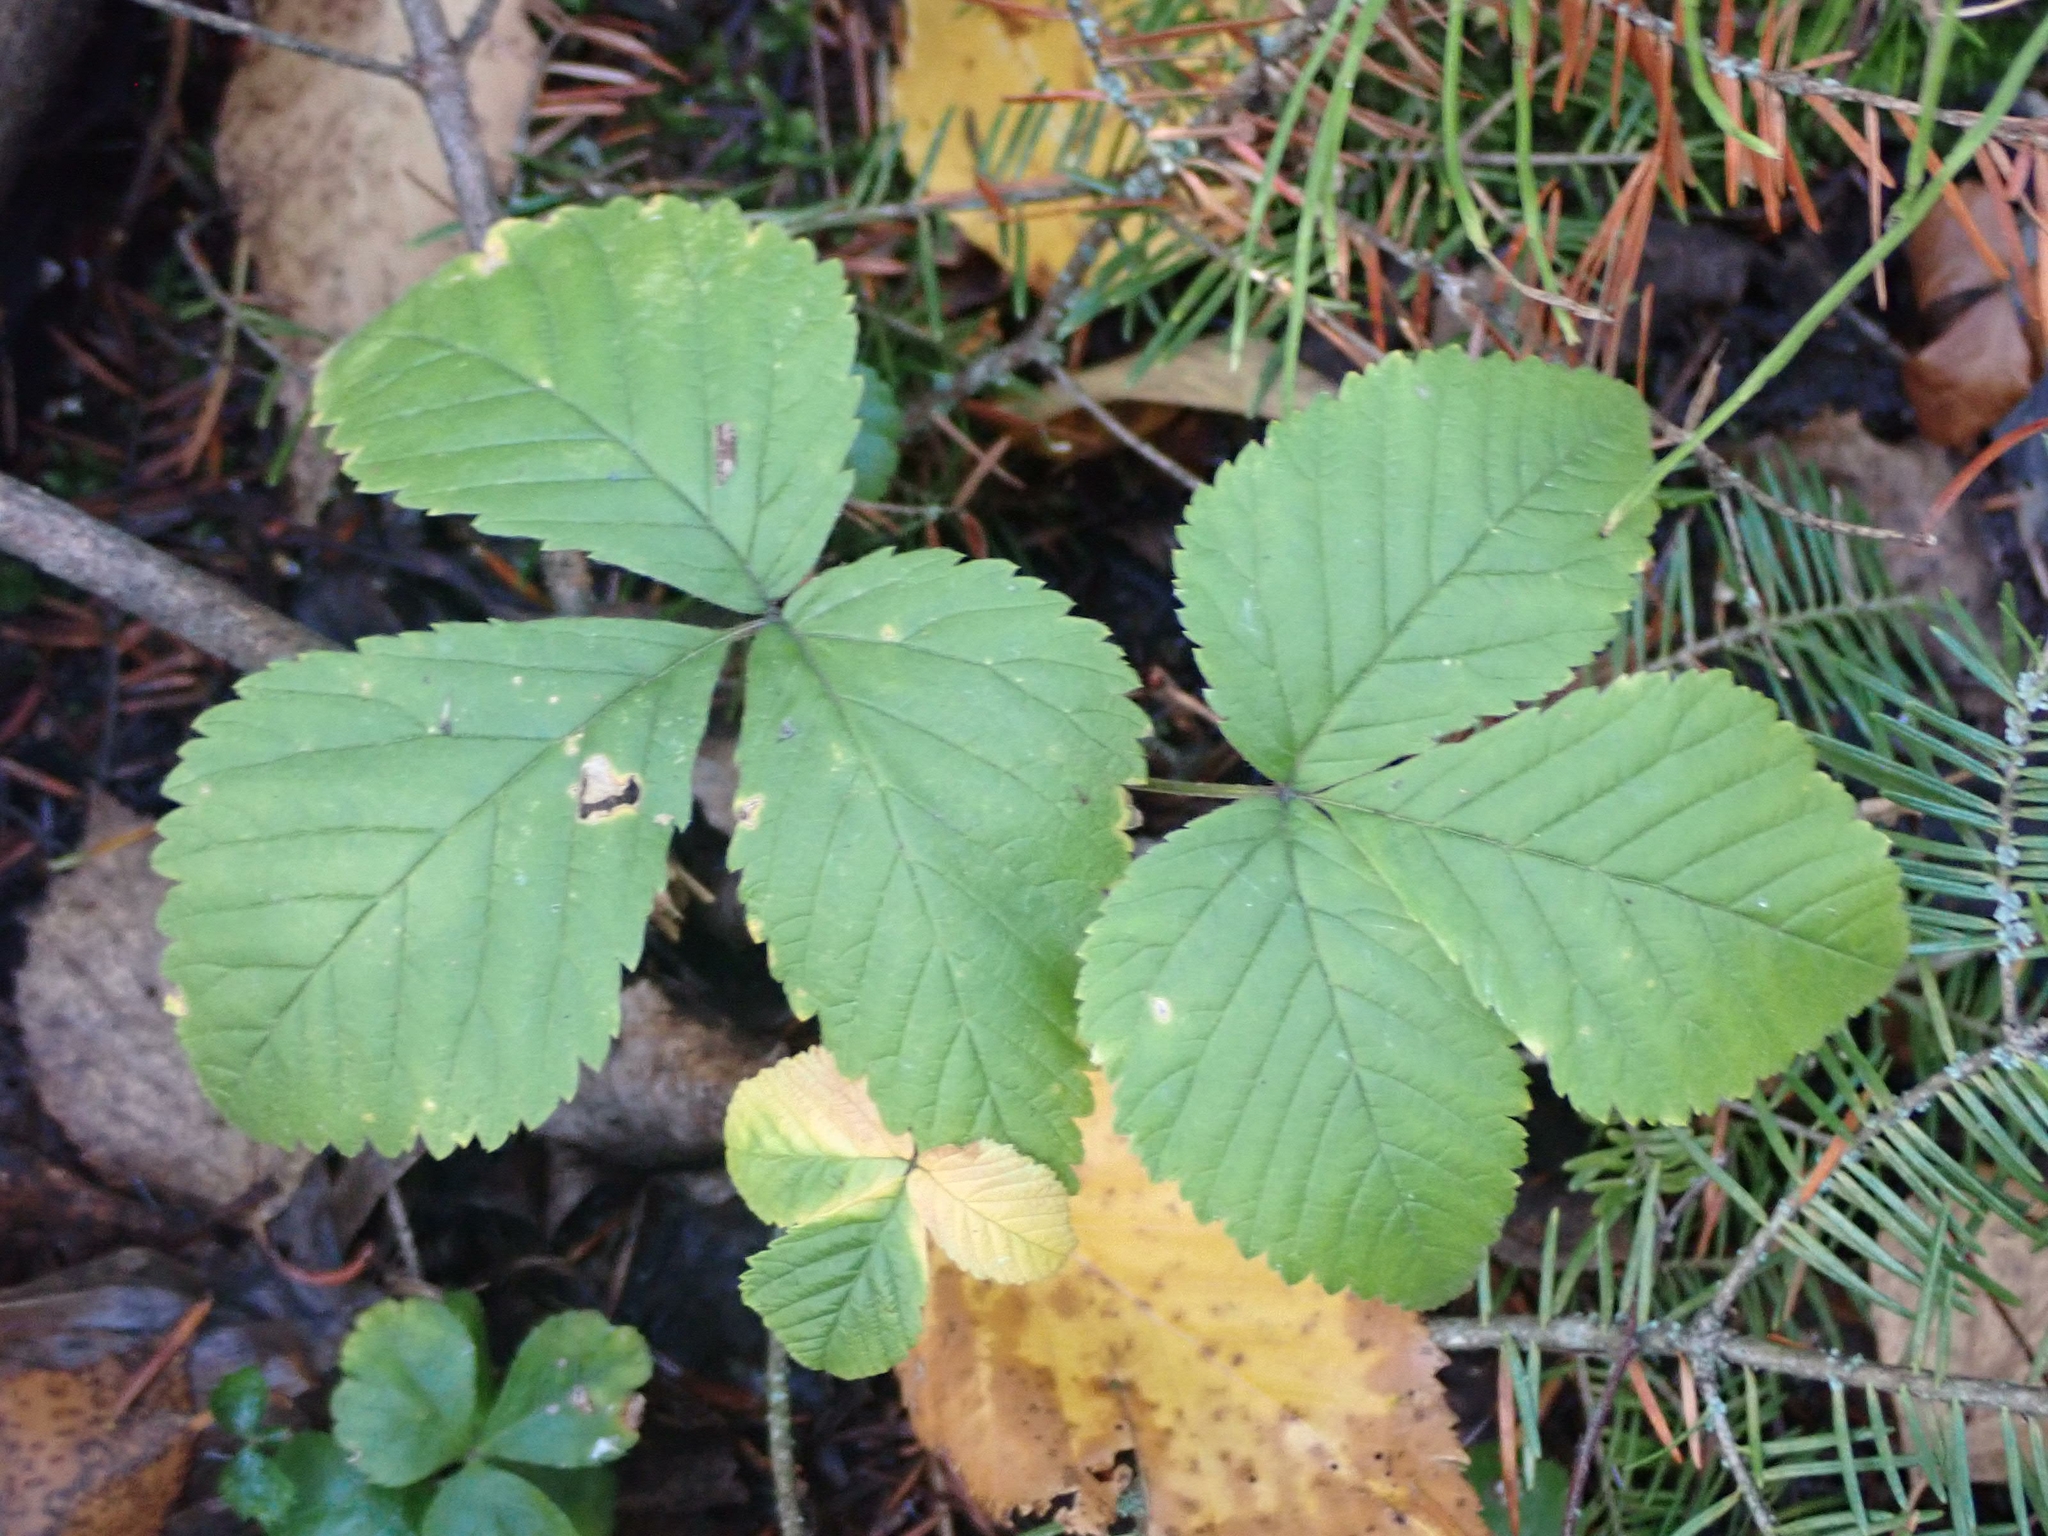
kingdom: Plantae
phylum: Tracheophyta
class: Magnoliopsida
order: Rosales
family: Rosaceae
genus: Rubus
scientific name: Rubus pubescens
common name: Dwarf raspberry
